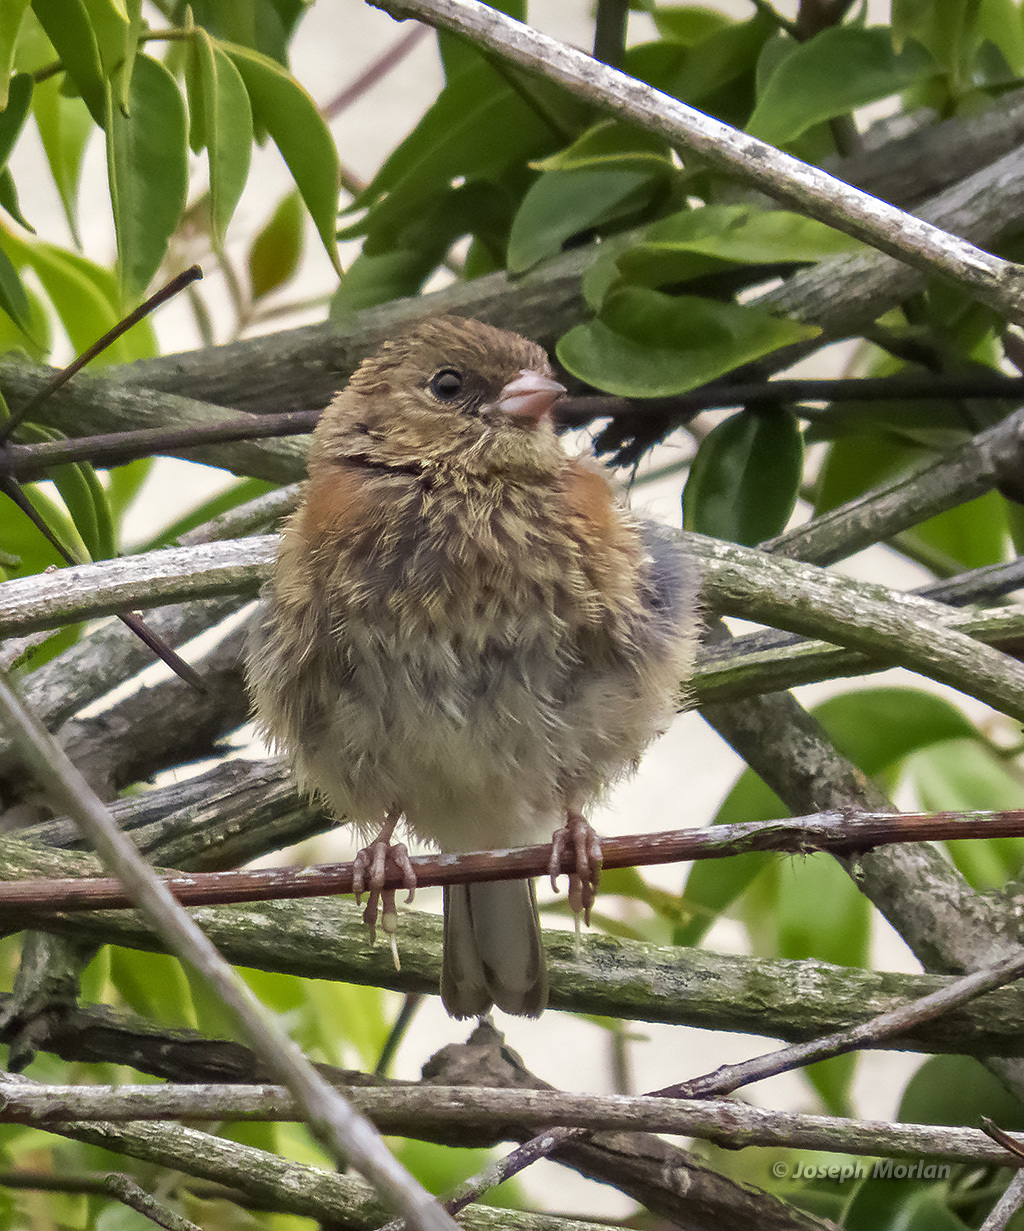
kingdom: Animalia
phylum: Chordata
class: Aves
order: Passeriformes
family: Passerellidae
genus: Junco
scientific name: Junco hyemalis
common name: Dark-eyed junco
